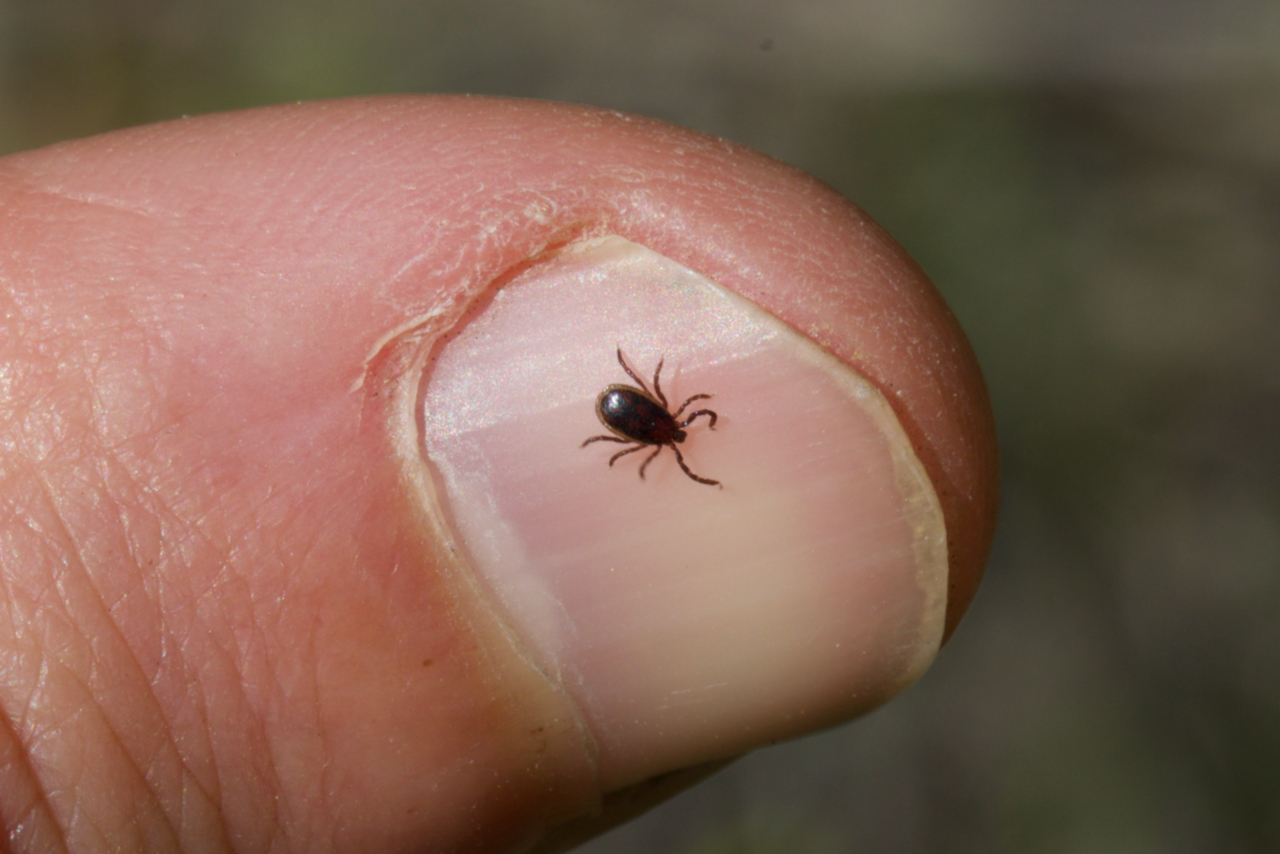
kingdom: Animalia
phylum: Arthropoda
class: Arachnida
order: Ixodida
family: Ixodidae
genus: Ixodes
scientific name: Ixodes pacificus
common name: California black-legged tick
